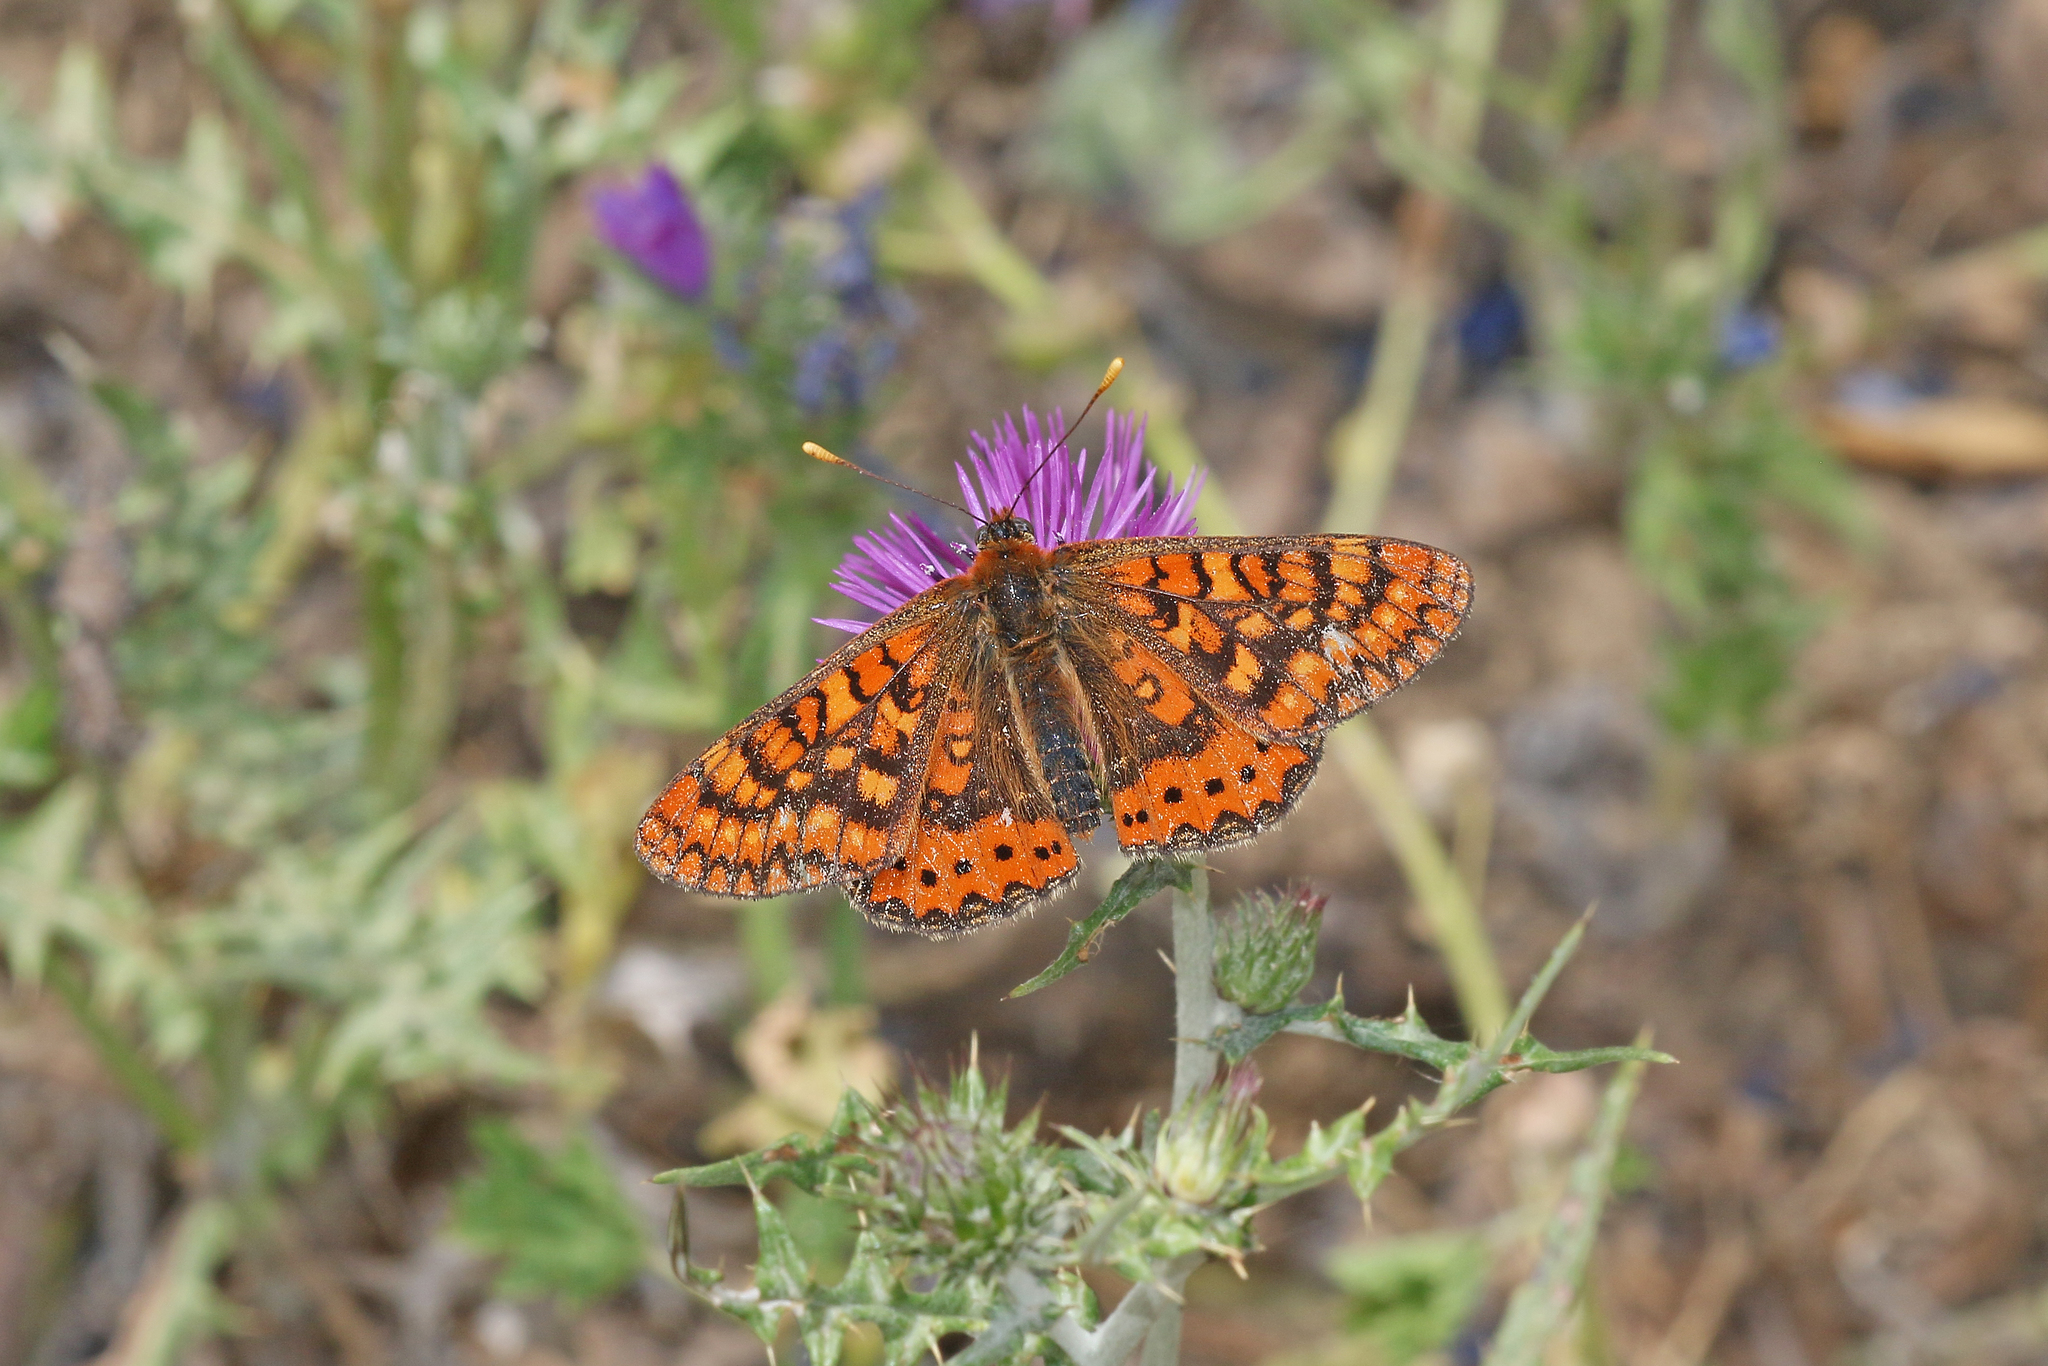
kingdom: Animalia
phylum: Arthropoda
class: Insecta
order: Lepidoptera
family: Nymphalidae
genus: Euphydryas
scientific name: Euphydryas aurinia
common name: Marsh fritillary
